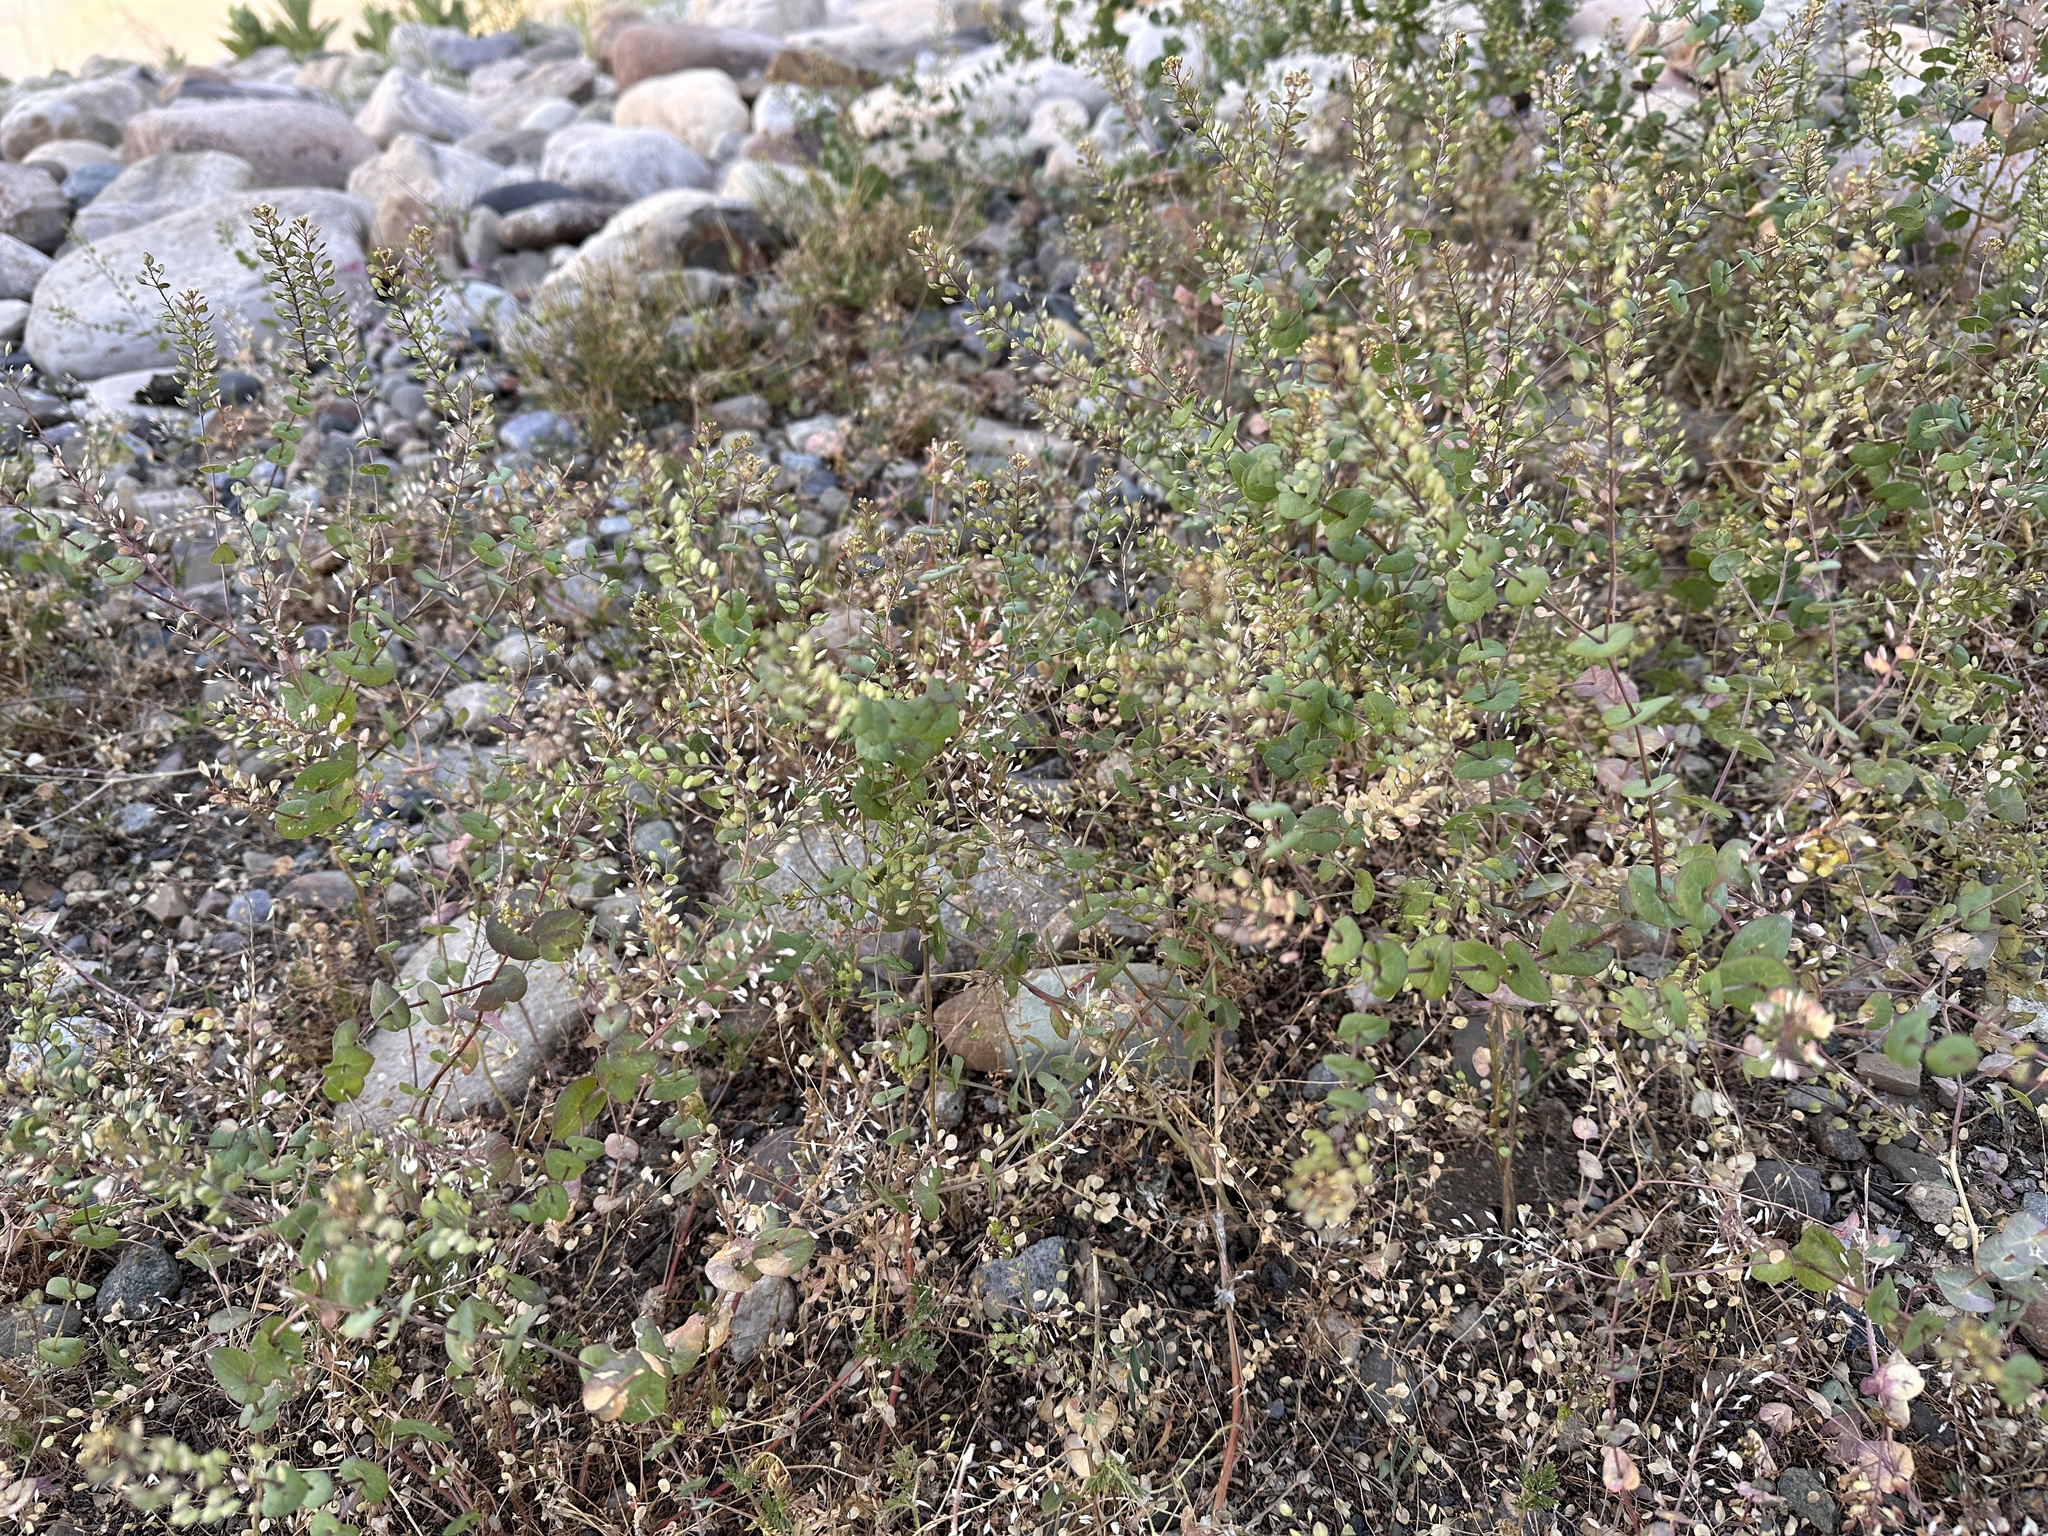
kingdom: Plantae
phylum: Tracheophyta
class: Magnoliopsida
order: Brassicales
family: Brassicaceae
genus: Lepidium
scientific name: Lepidium perfoliatum
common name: Perfoliate pepperwort
